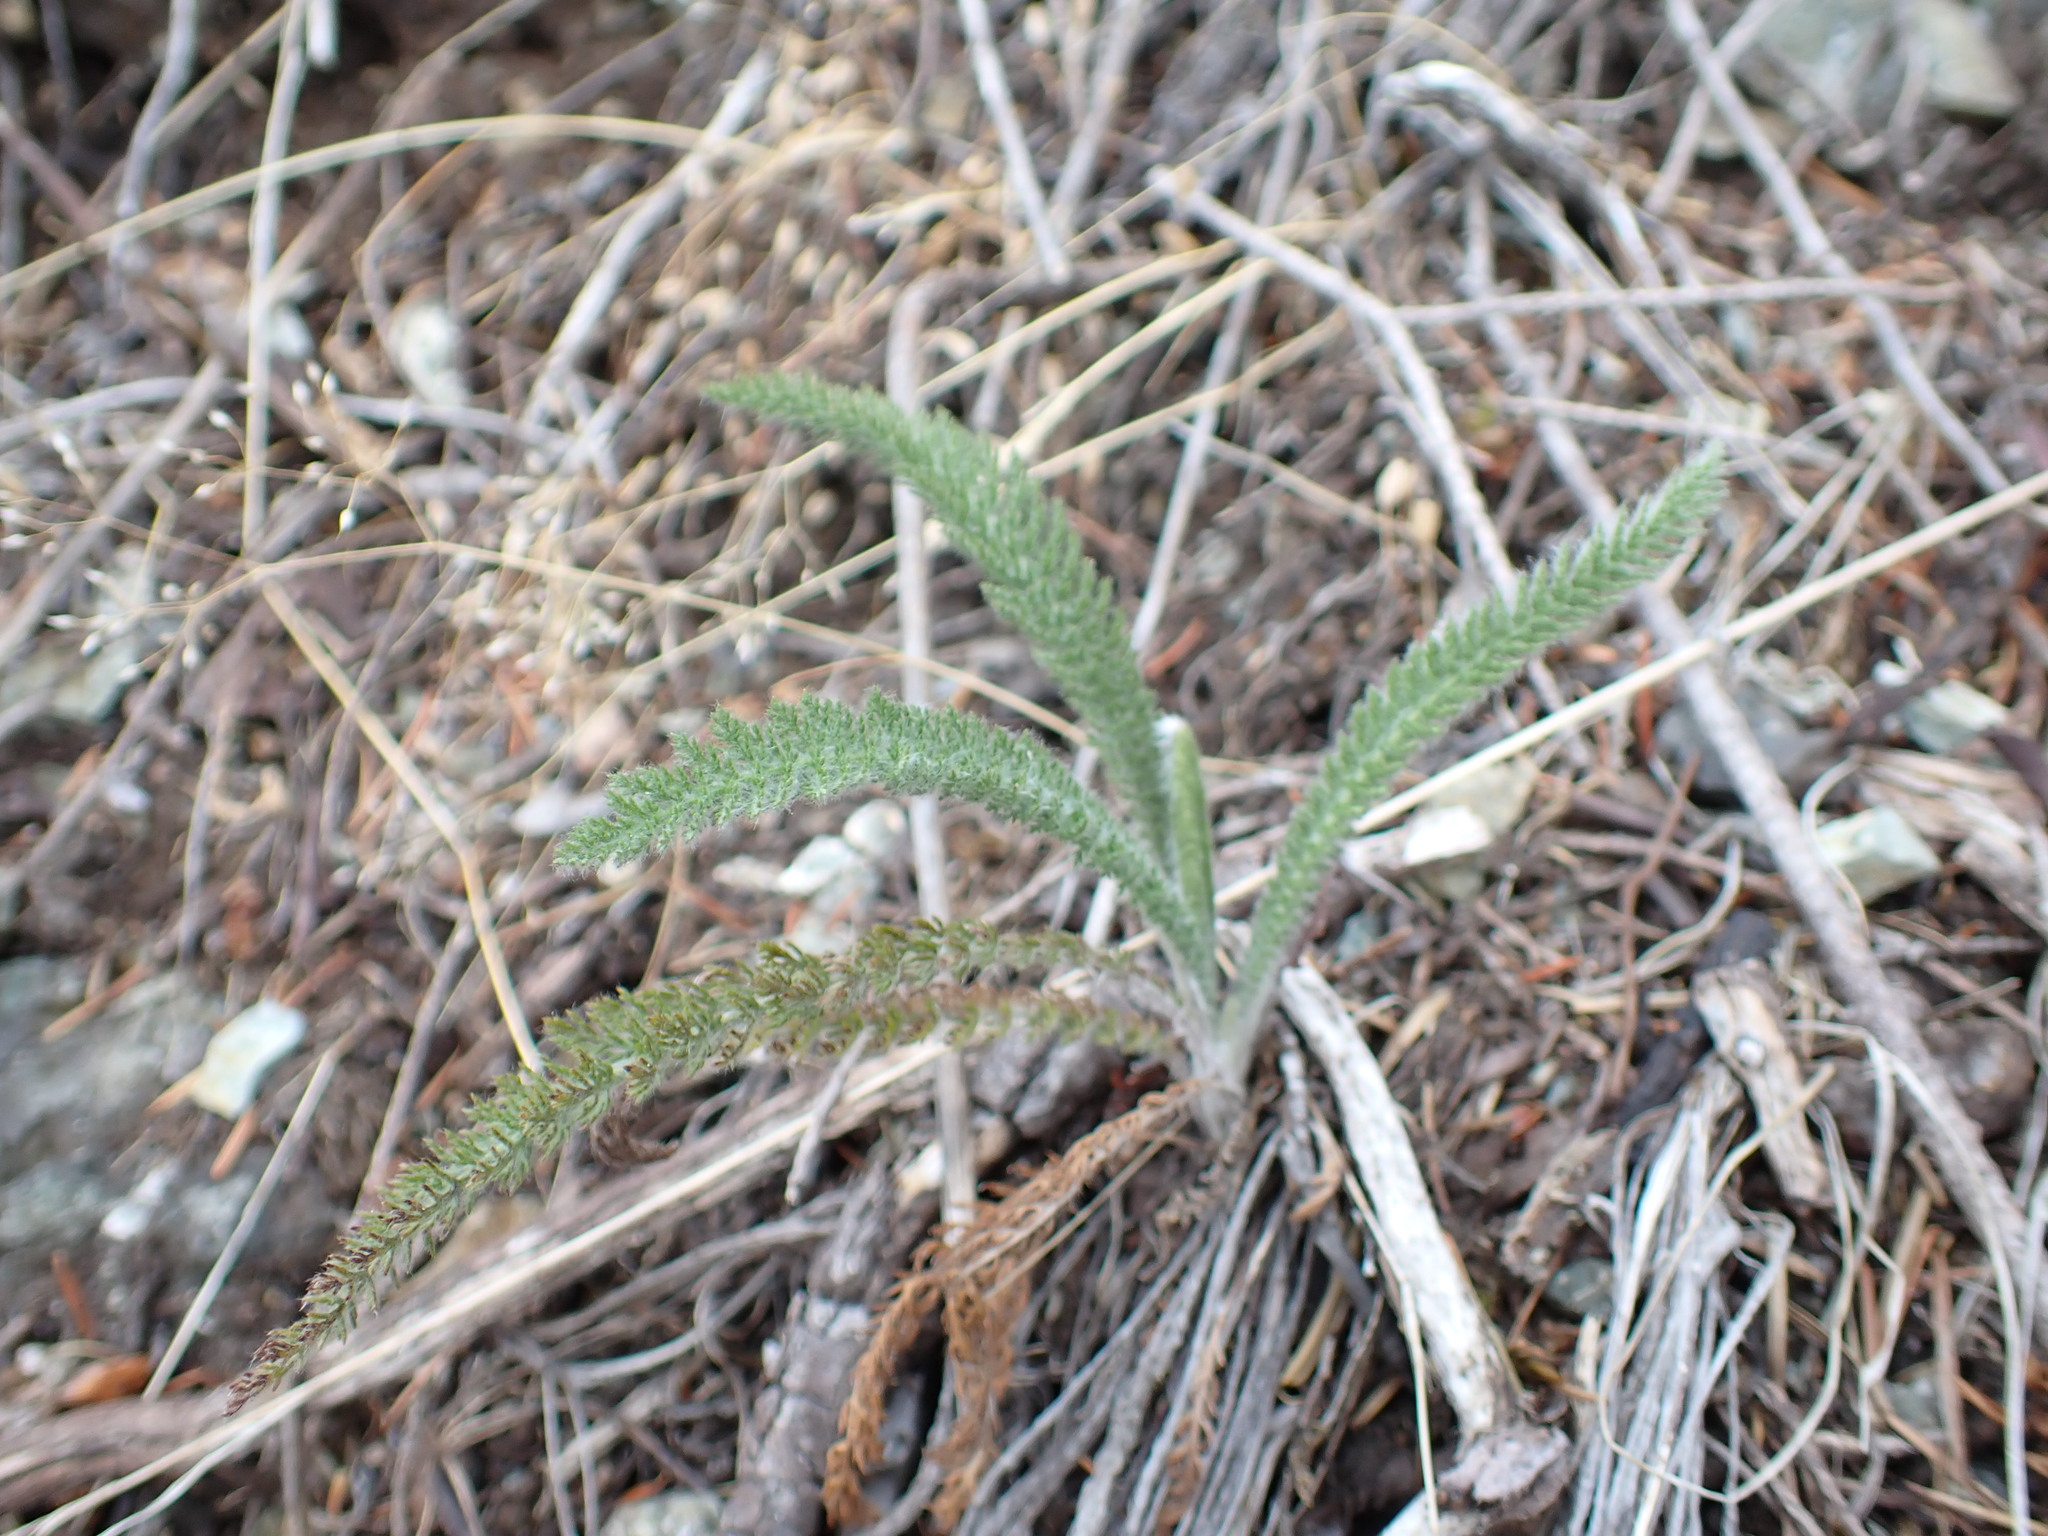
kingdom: Plantae
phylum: Tracheophyta
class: Magnoliopsida
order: Asterales
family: Asteraceae
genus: Achillea
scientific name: Achillea millefolium
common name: Yarrow
